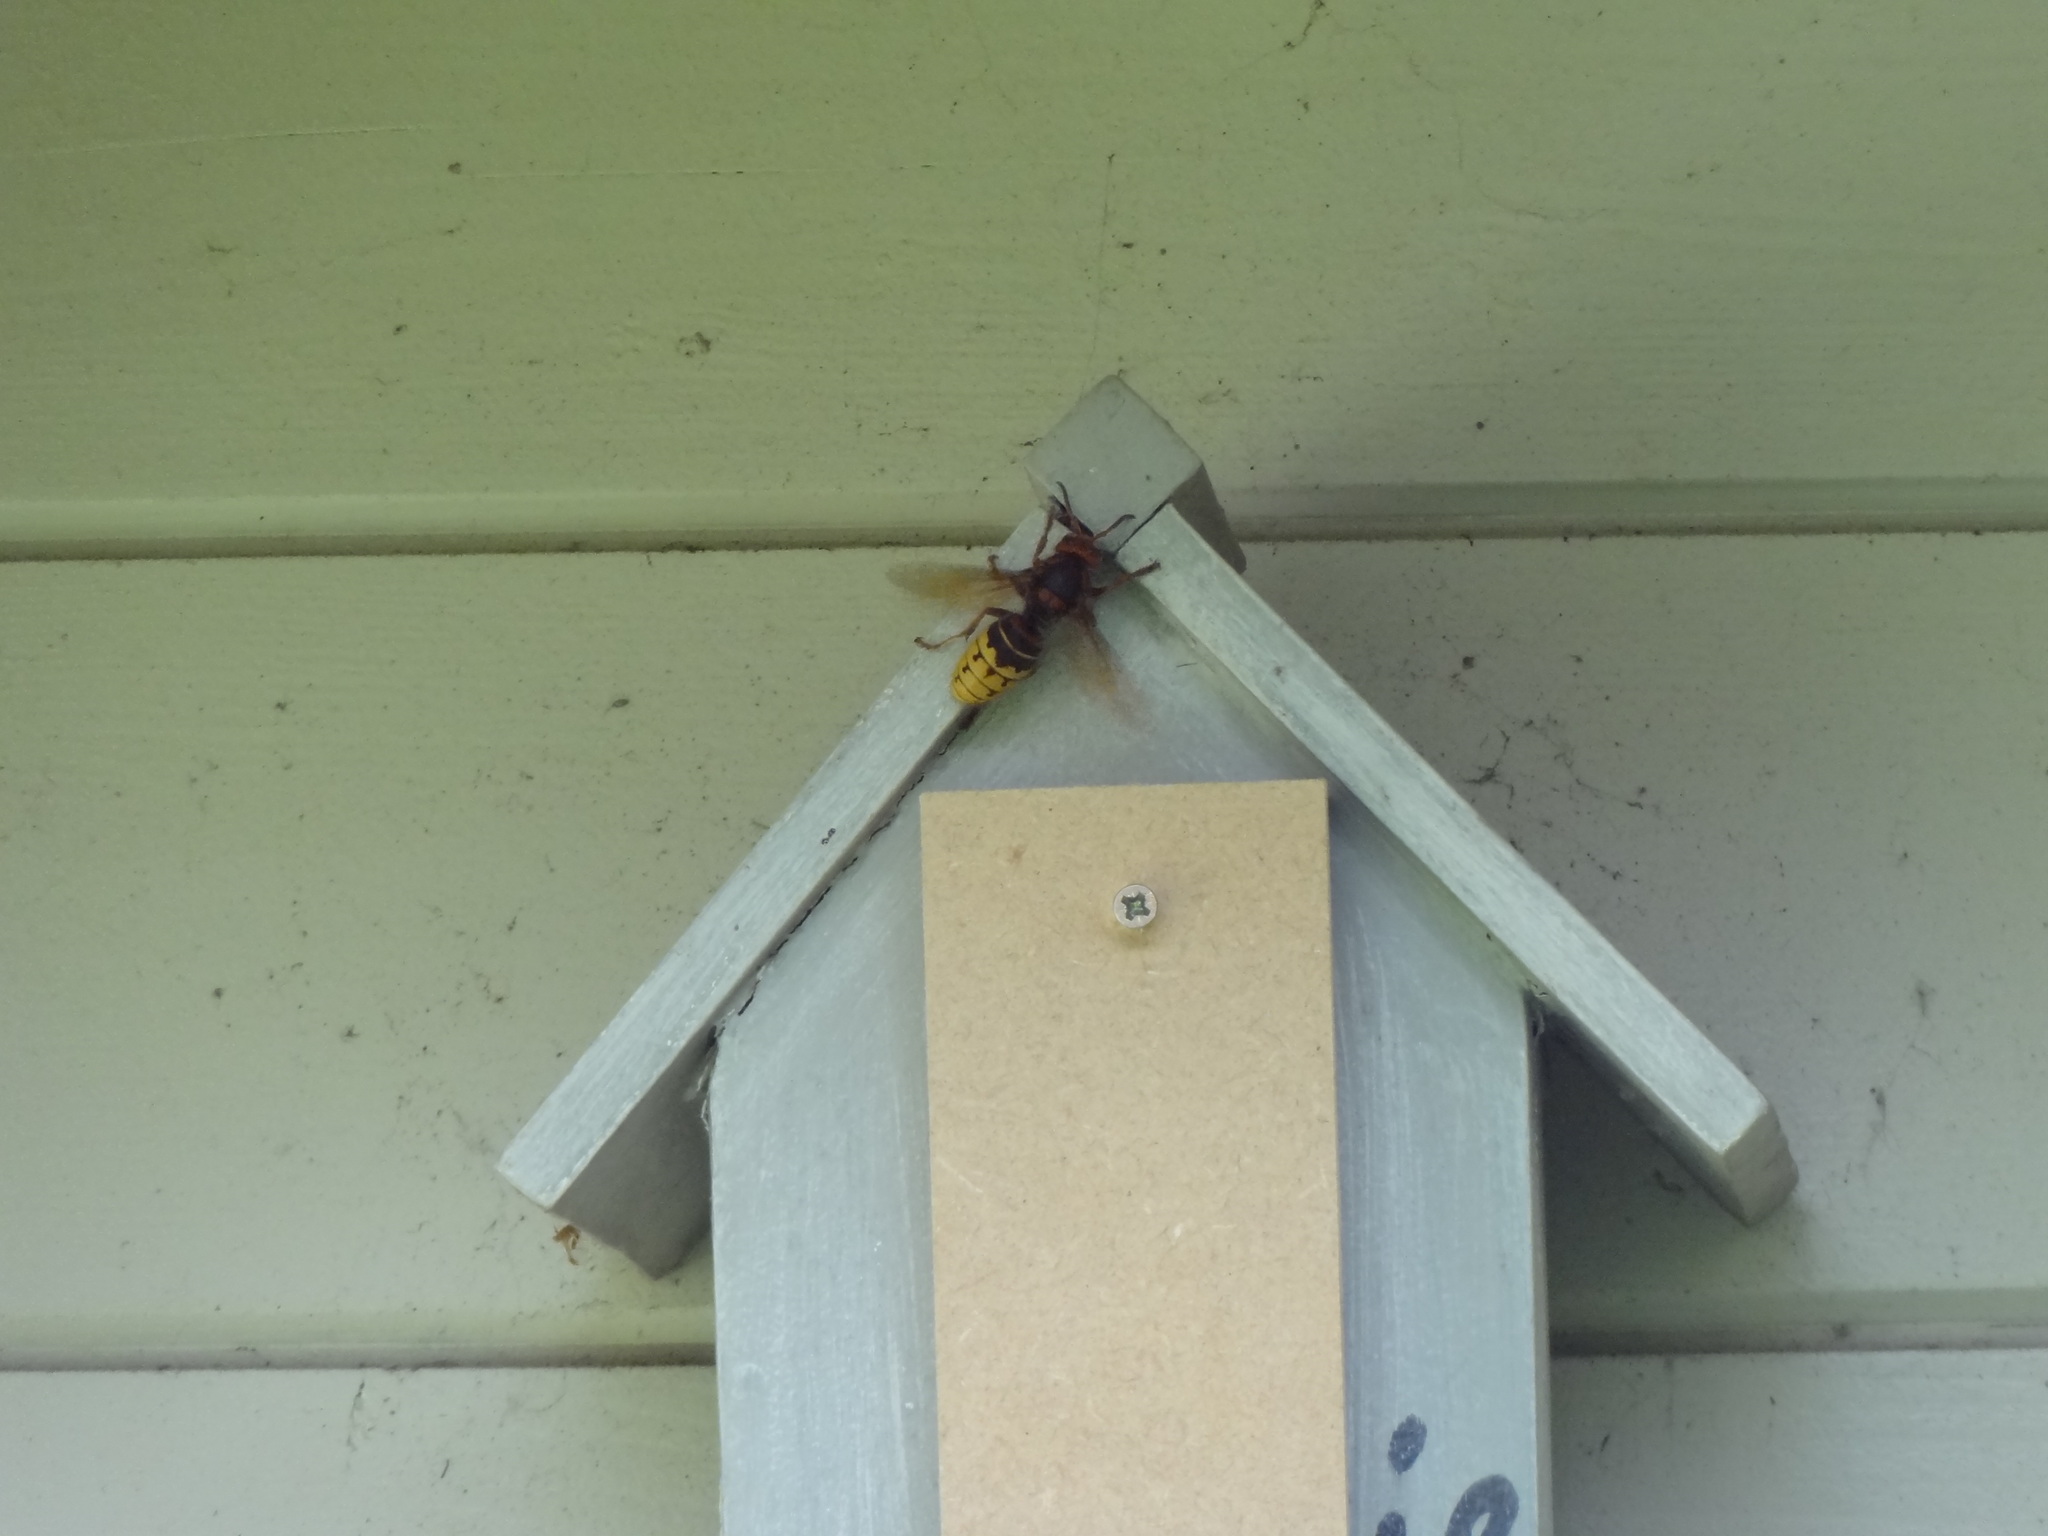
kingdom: Animalia
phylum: Arthropoda
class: Insecta
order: Hymenoptera
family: Vespidae
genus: Vespa
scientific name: Vespa crabro
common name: Hornet
